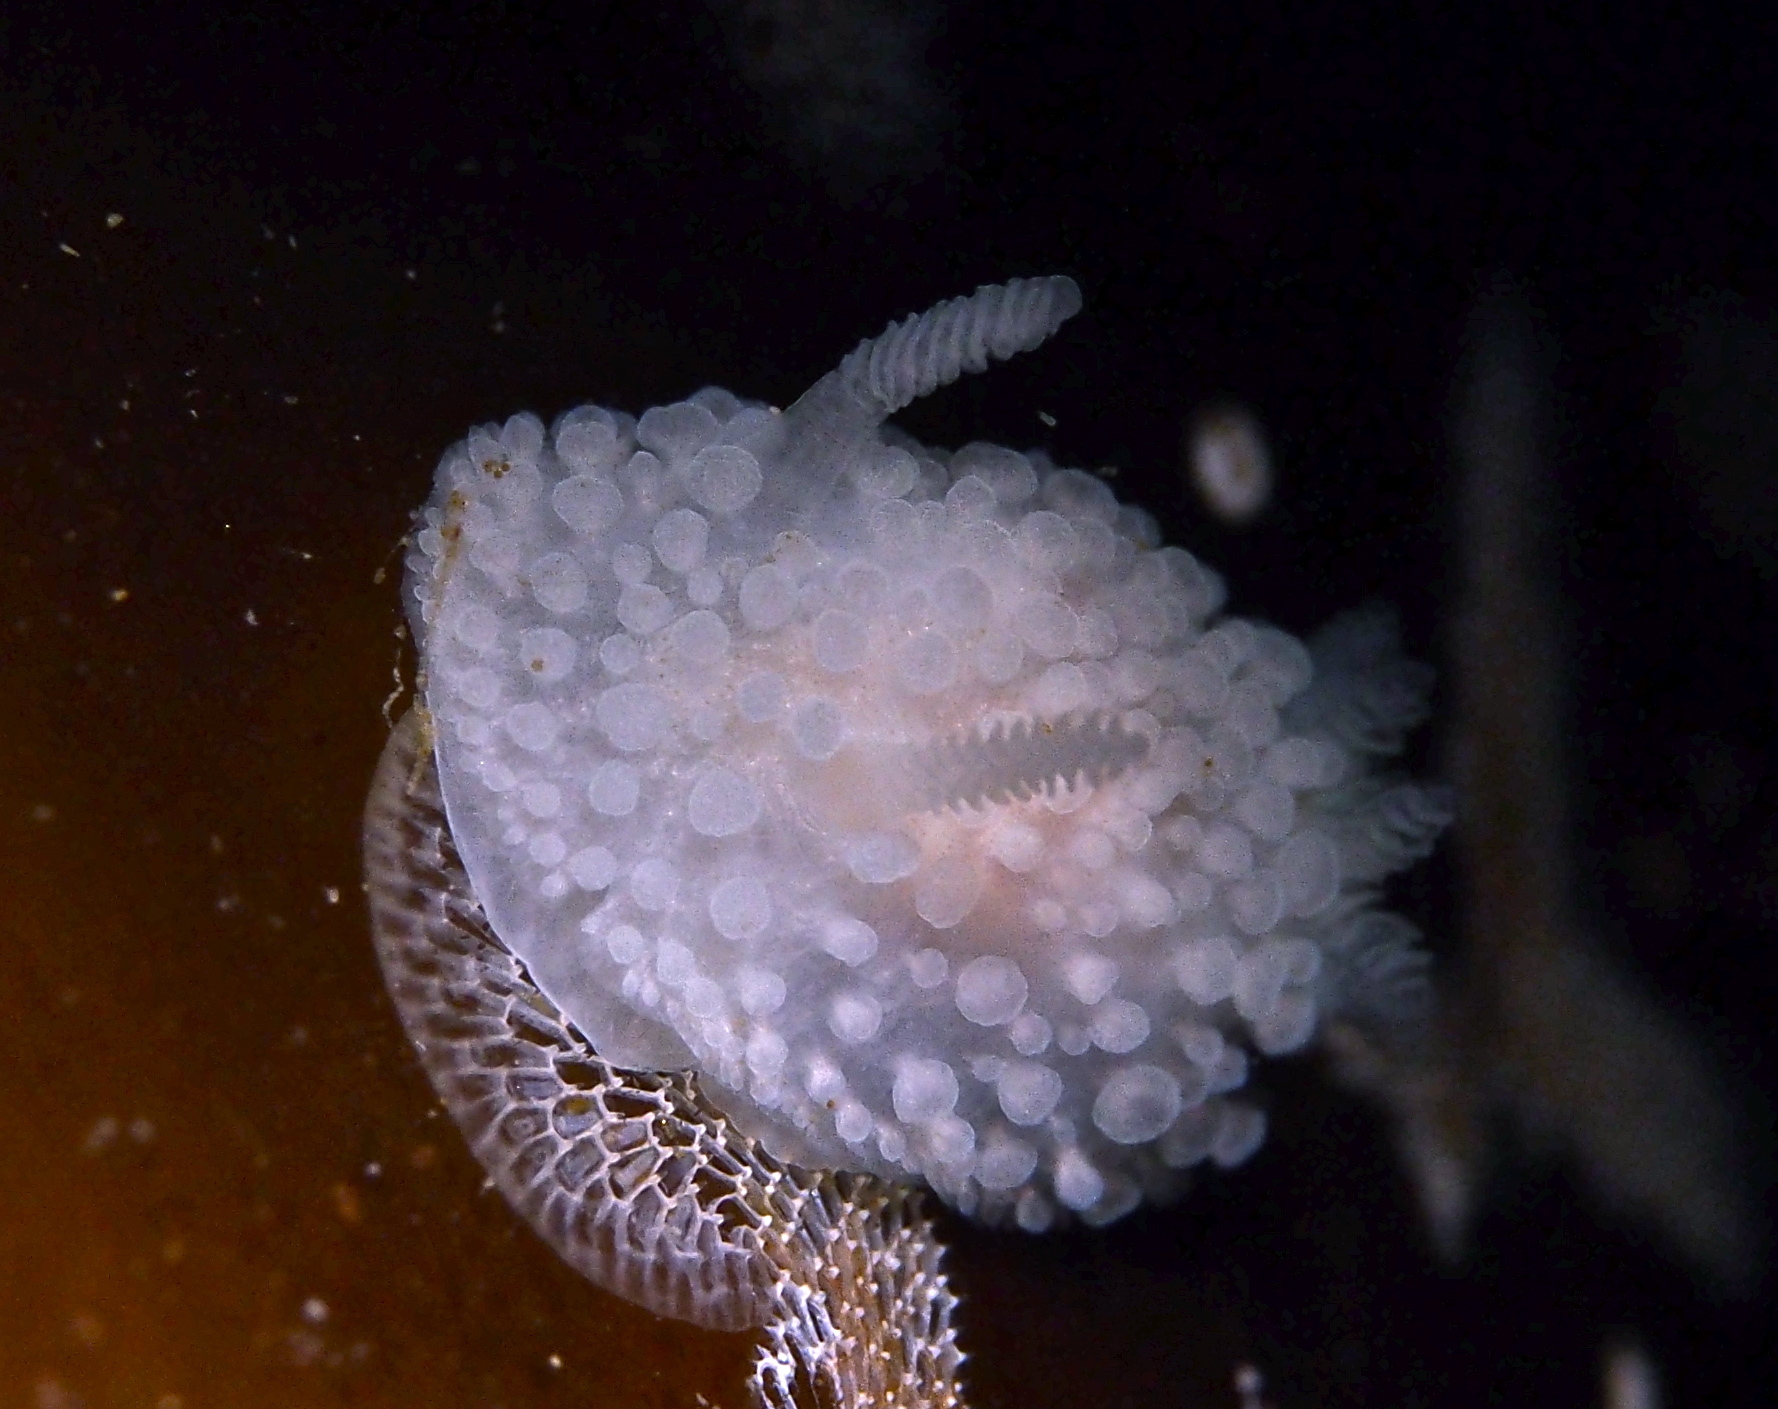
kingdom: Animalia
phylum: Mollusca
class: Gastropoda
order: Nudibranchia
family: Onchidorididae
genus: Onchidoris
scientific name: Onchidoris muricata
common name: Rough doris
